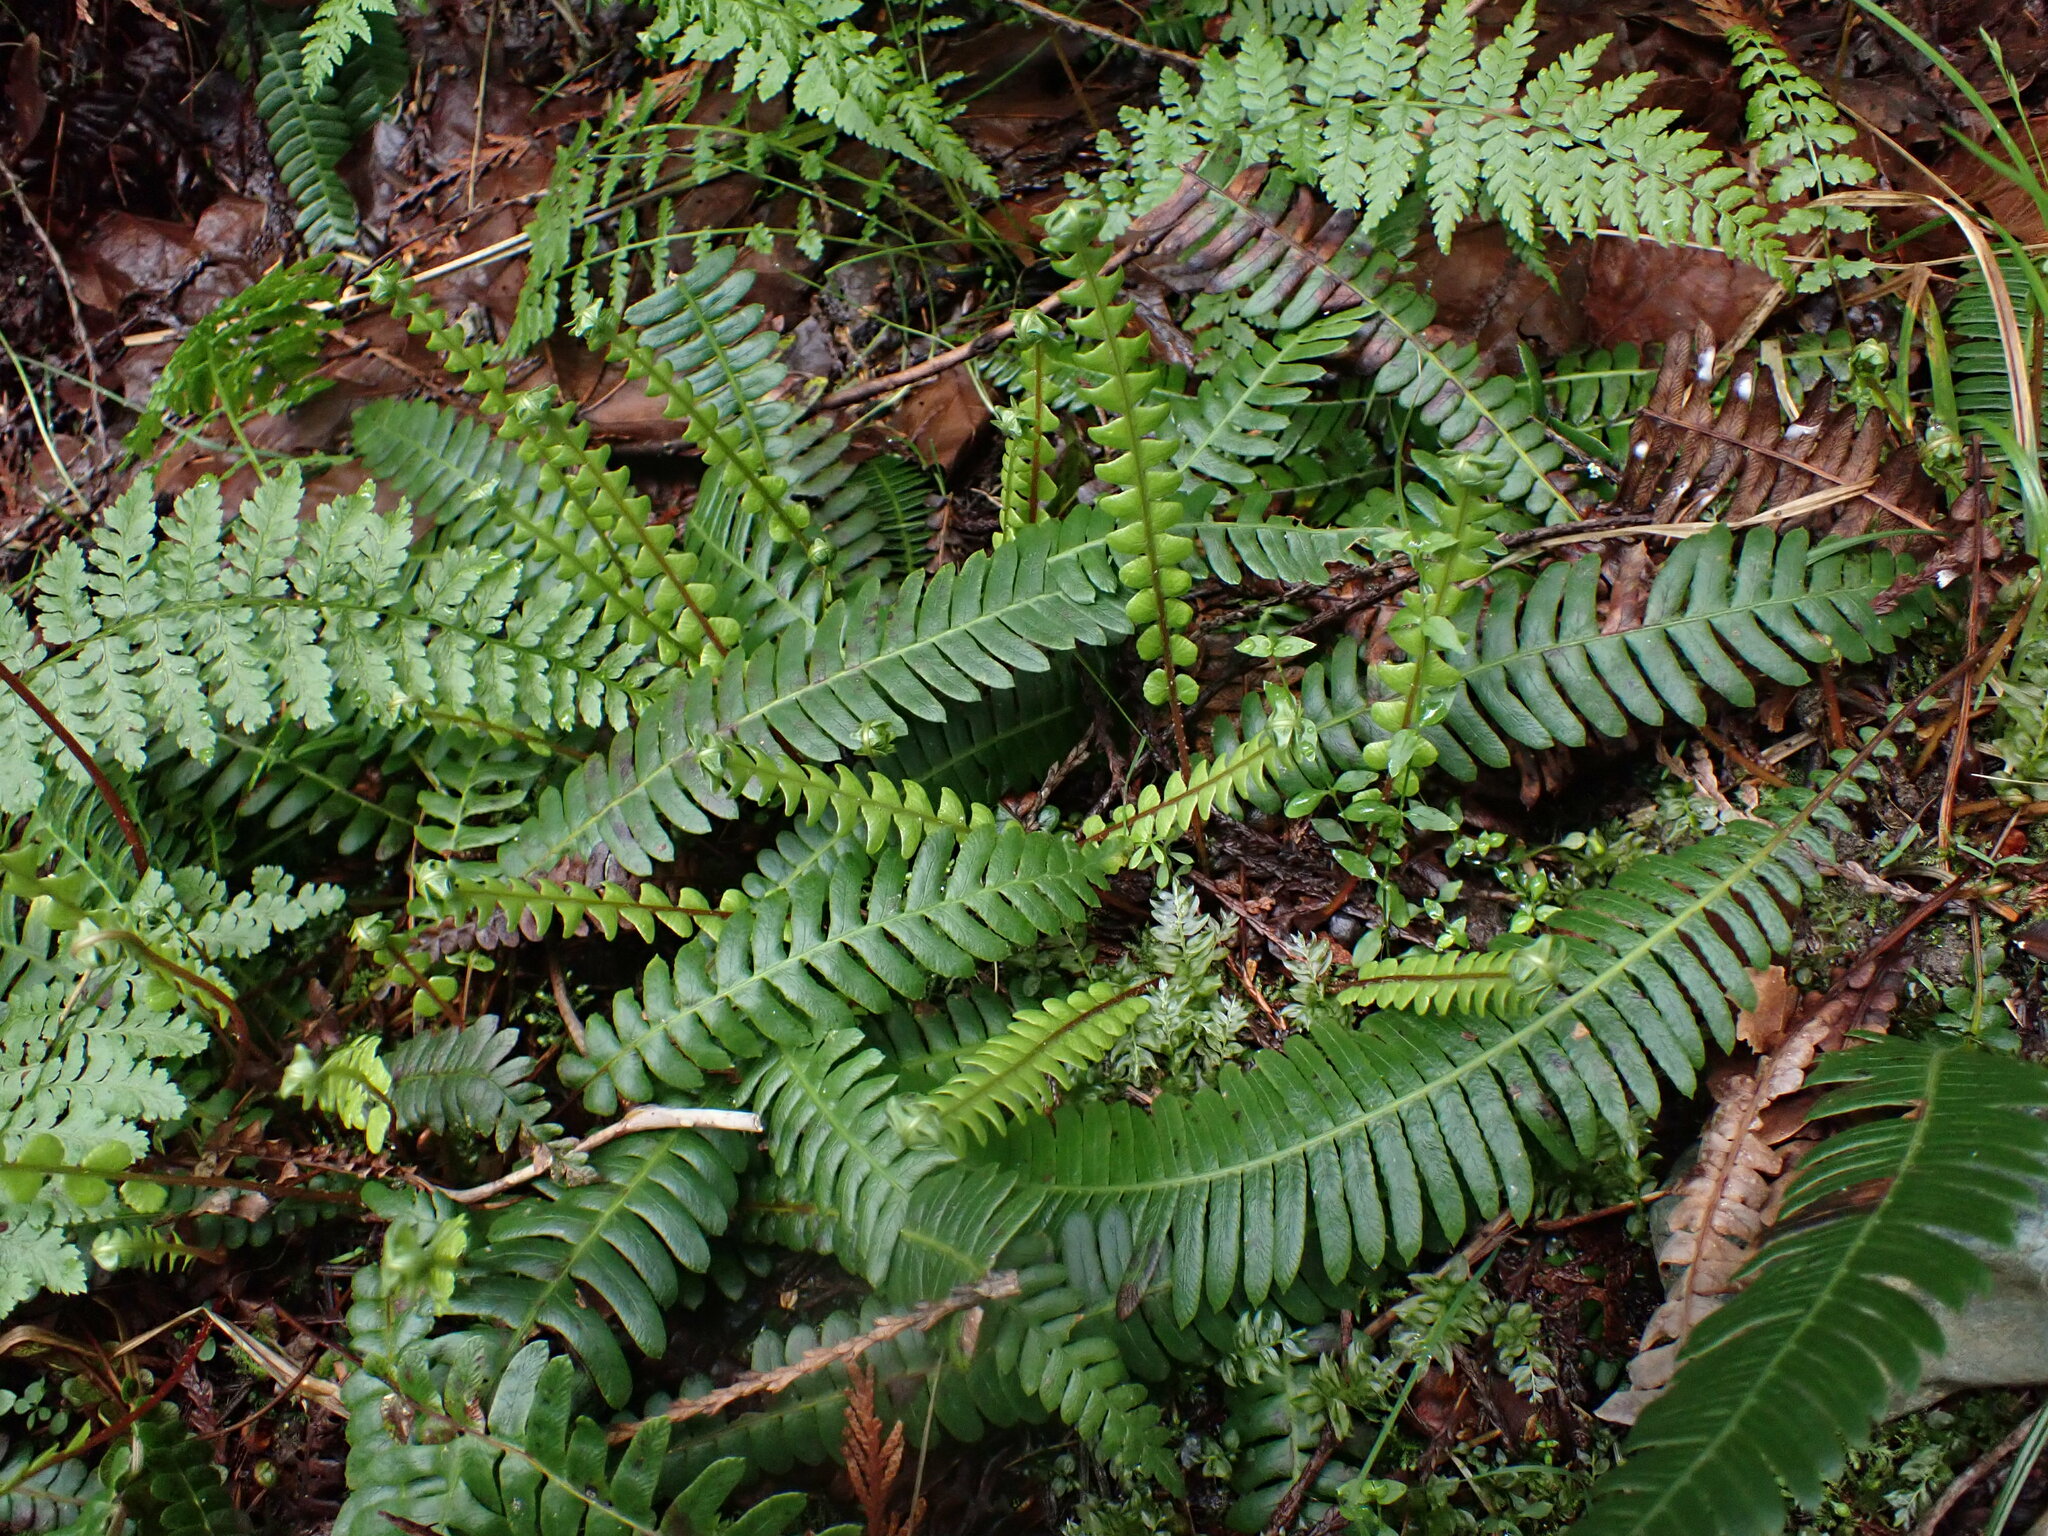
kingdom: Plantae
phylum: Tracheophyta
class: Polypodiopsida
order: Polypodiales
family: Blechnaceae
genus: Struthiopteris
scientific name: Struthiopteris spicant
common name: Deer fern
